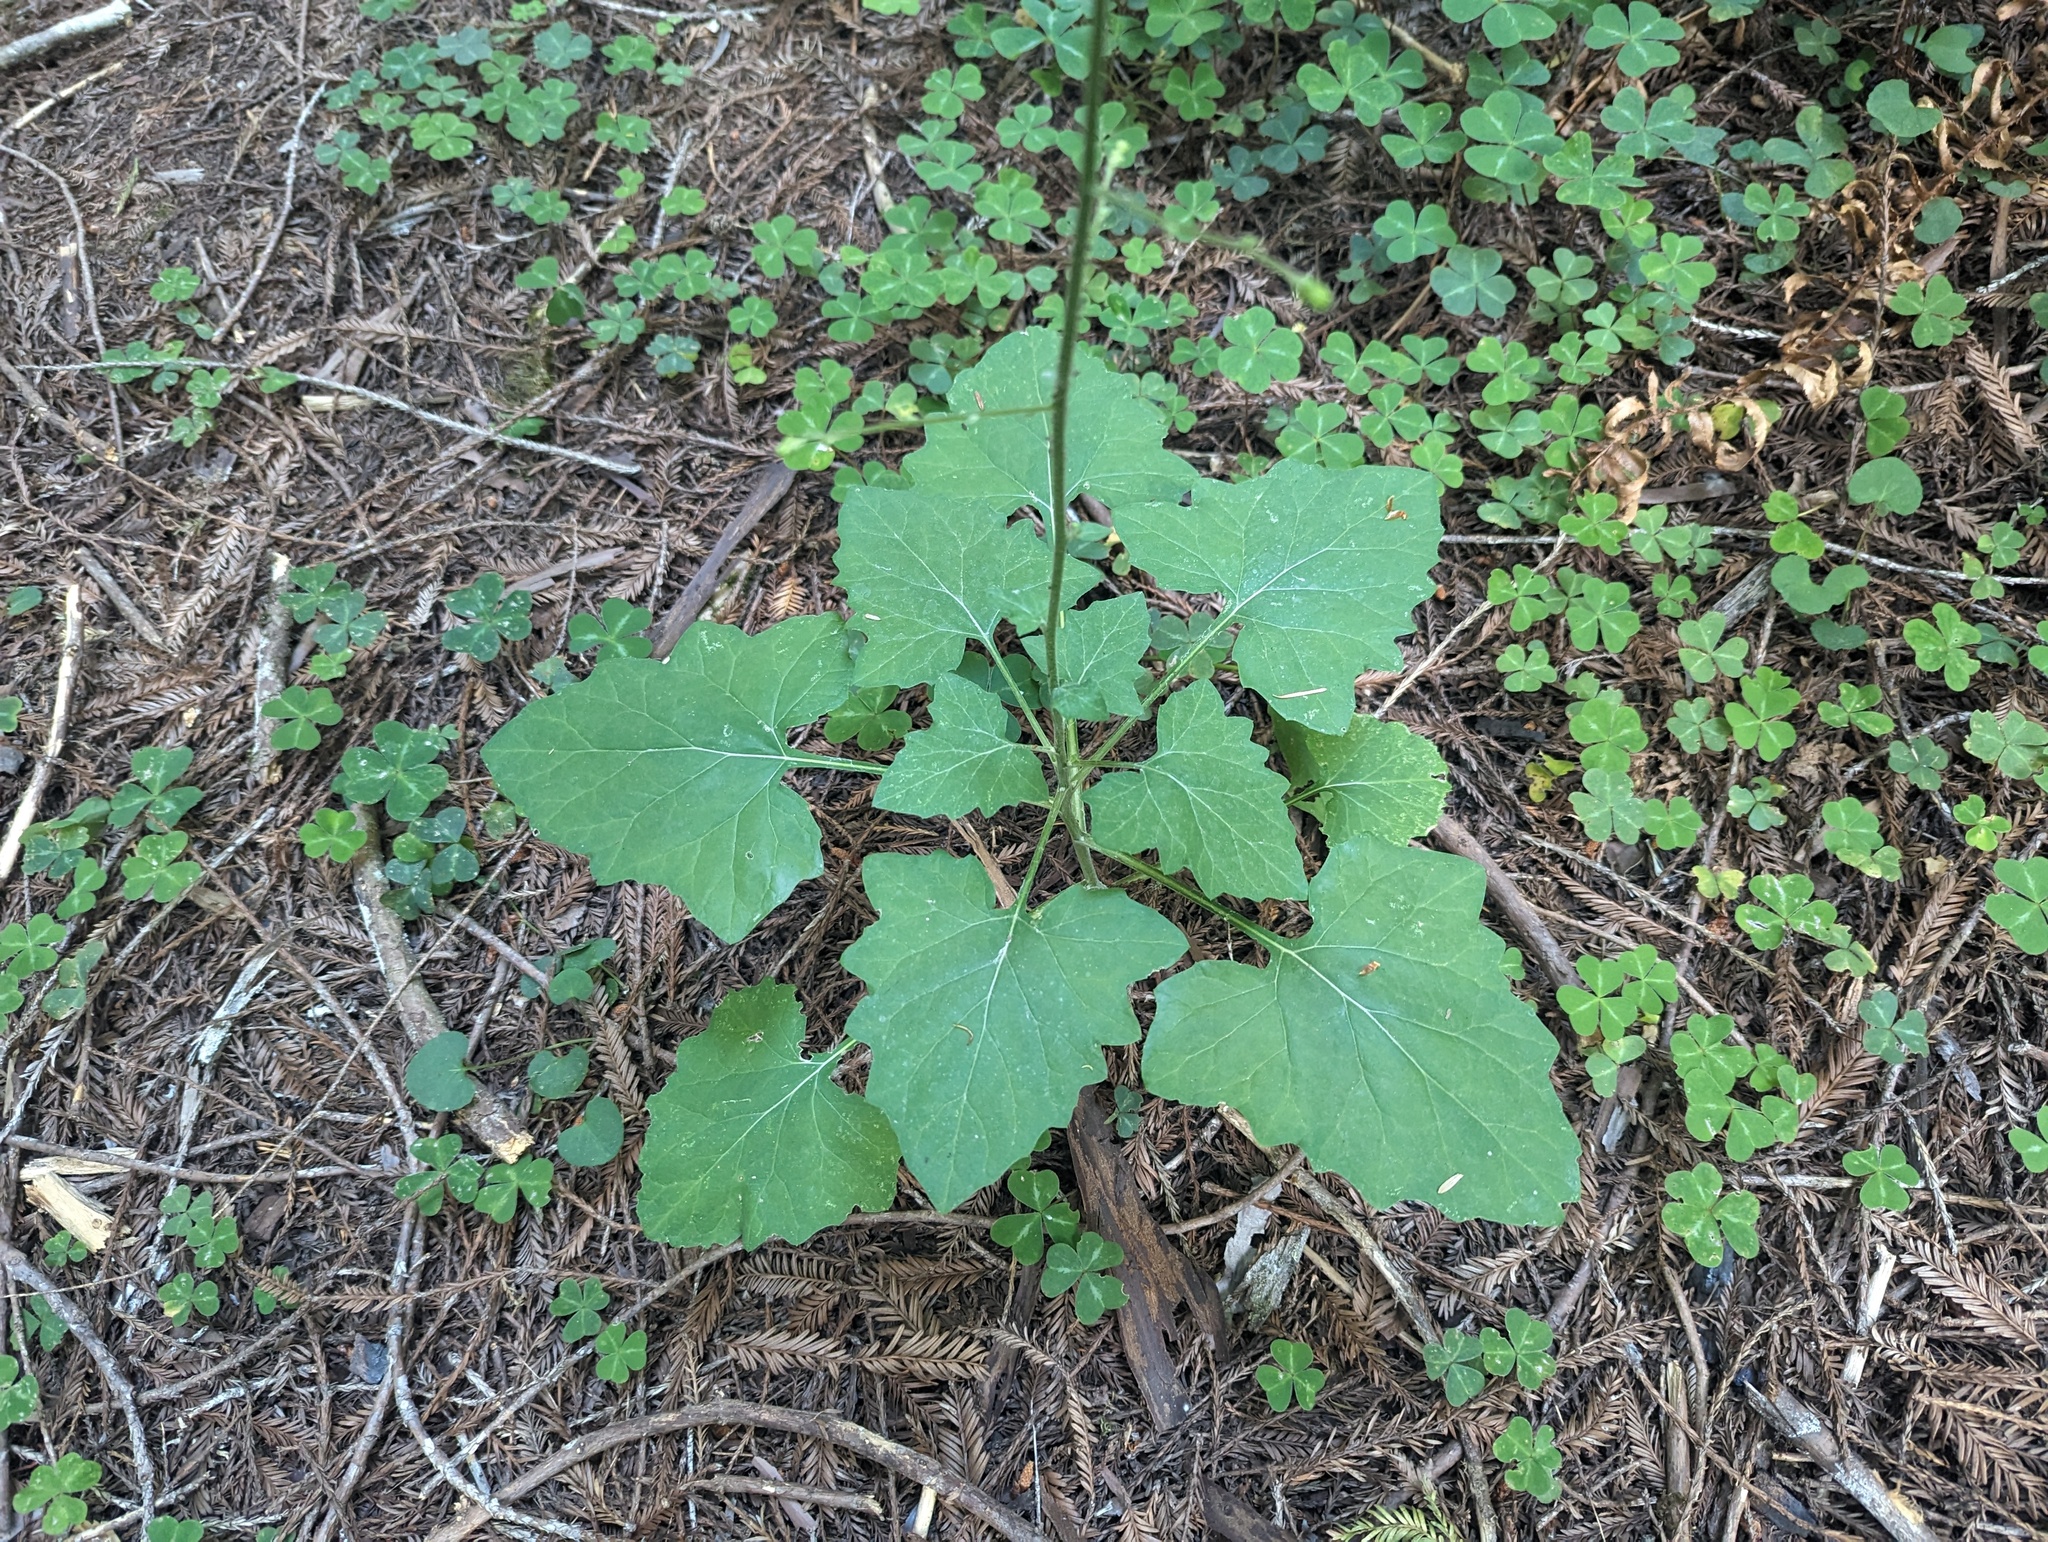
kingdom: Plantae
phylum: Tracheophyta
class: Magnoliopsida
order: Asterales
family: Asteraceae
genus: Adenocaulon
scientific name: Adenocaulon bicolor
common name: Trailplant
